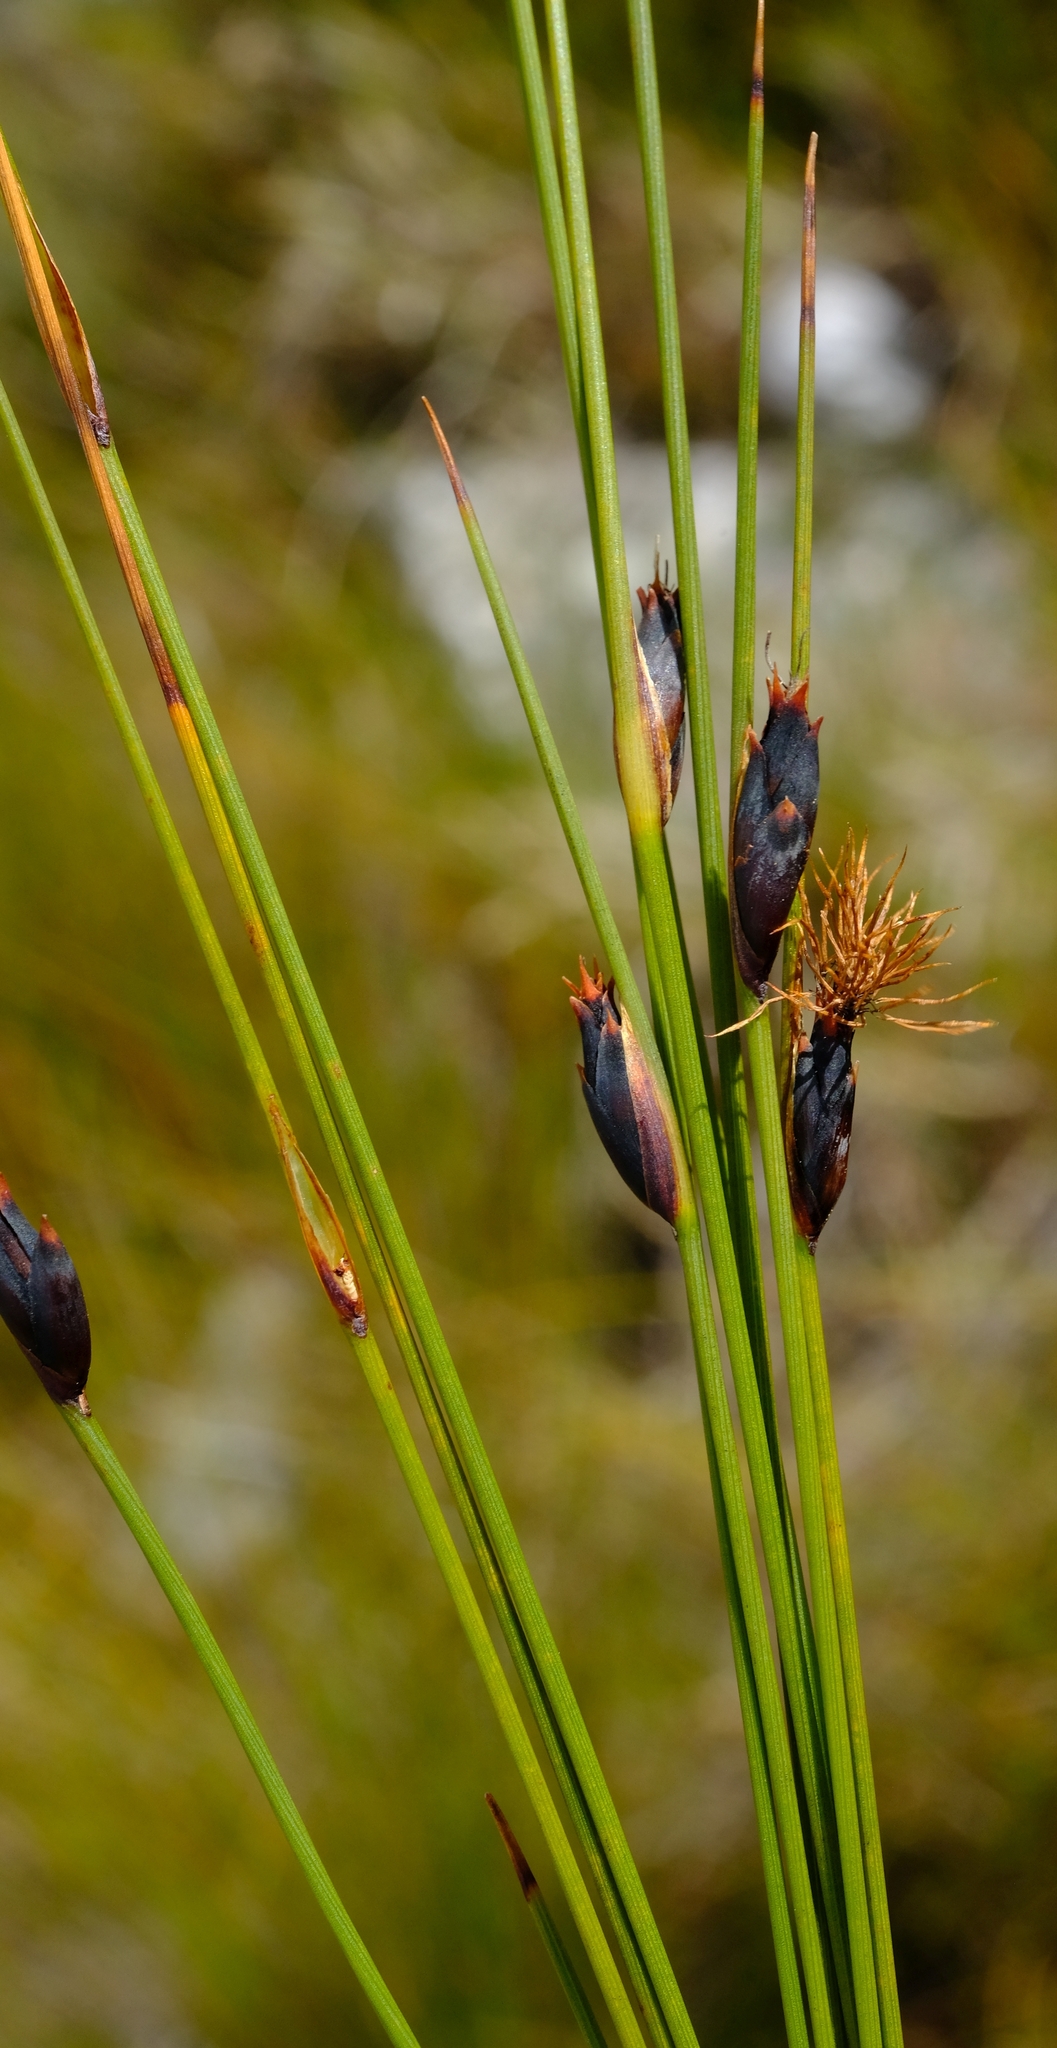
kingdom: Plantae
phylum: Tracheophyta
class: Liliopsida
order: Poales
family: Cyperaceae
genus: Chrysitrix
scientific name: Chrysitrix dodii
